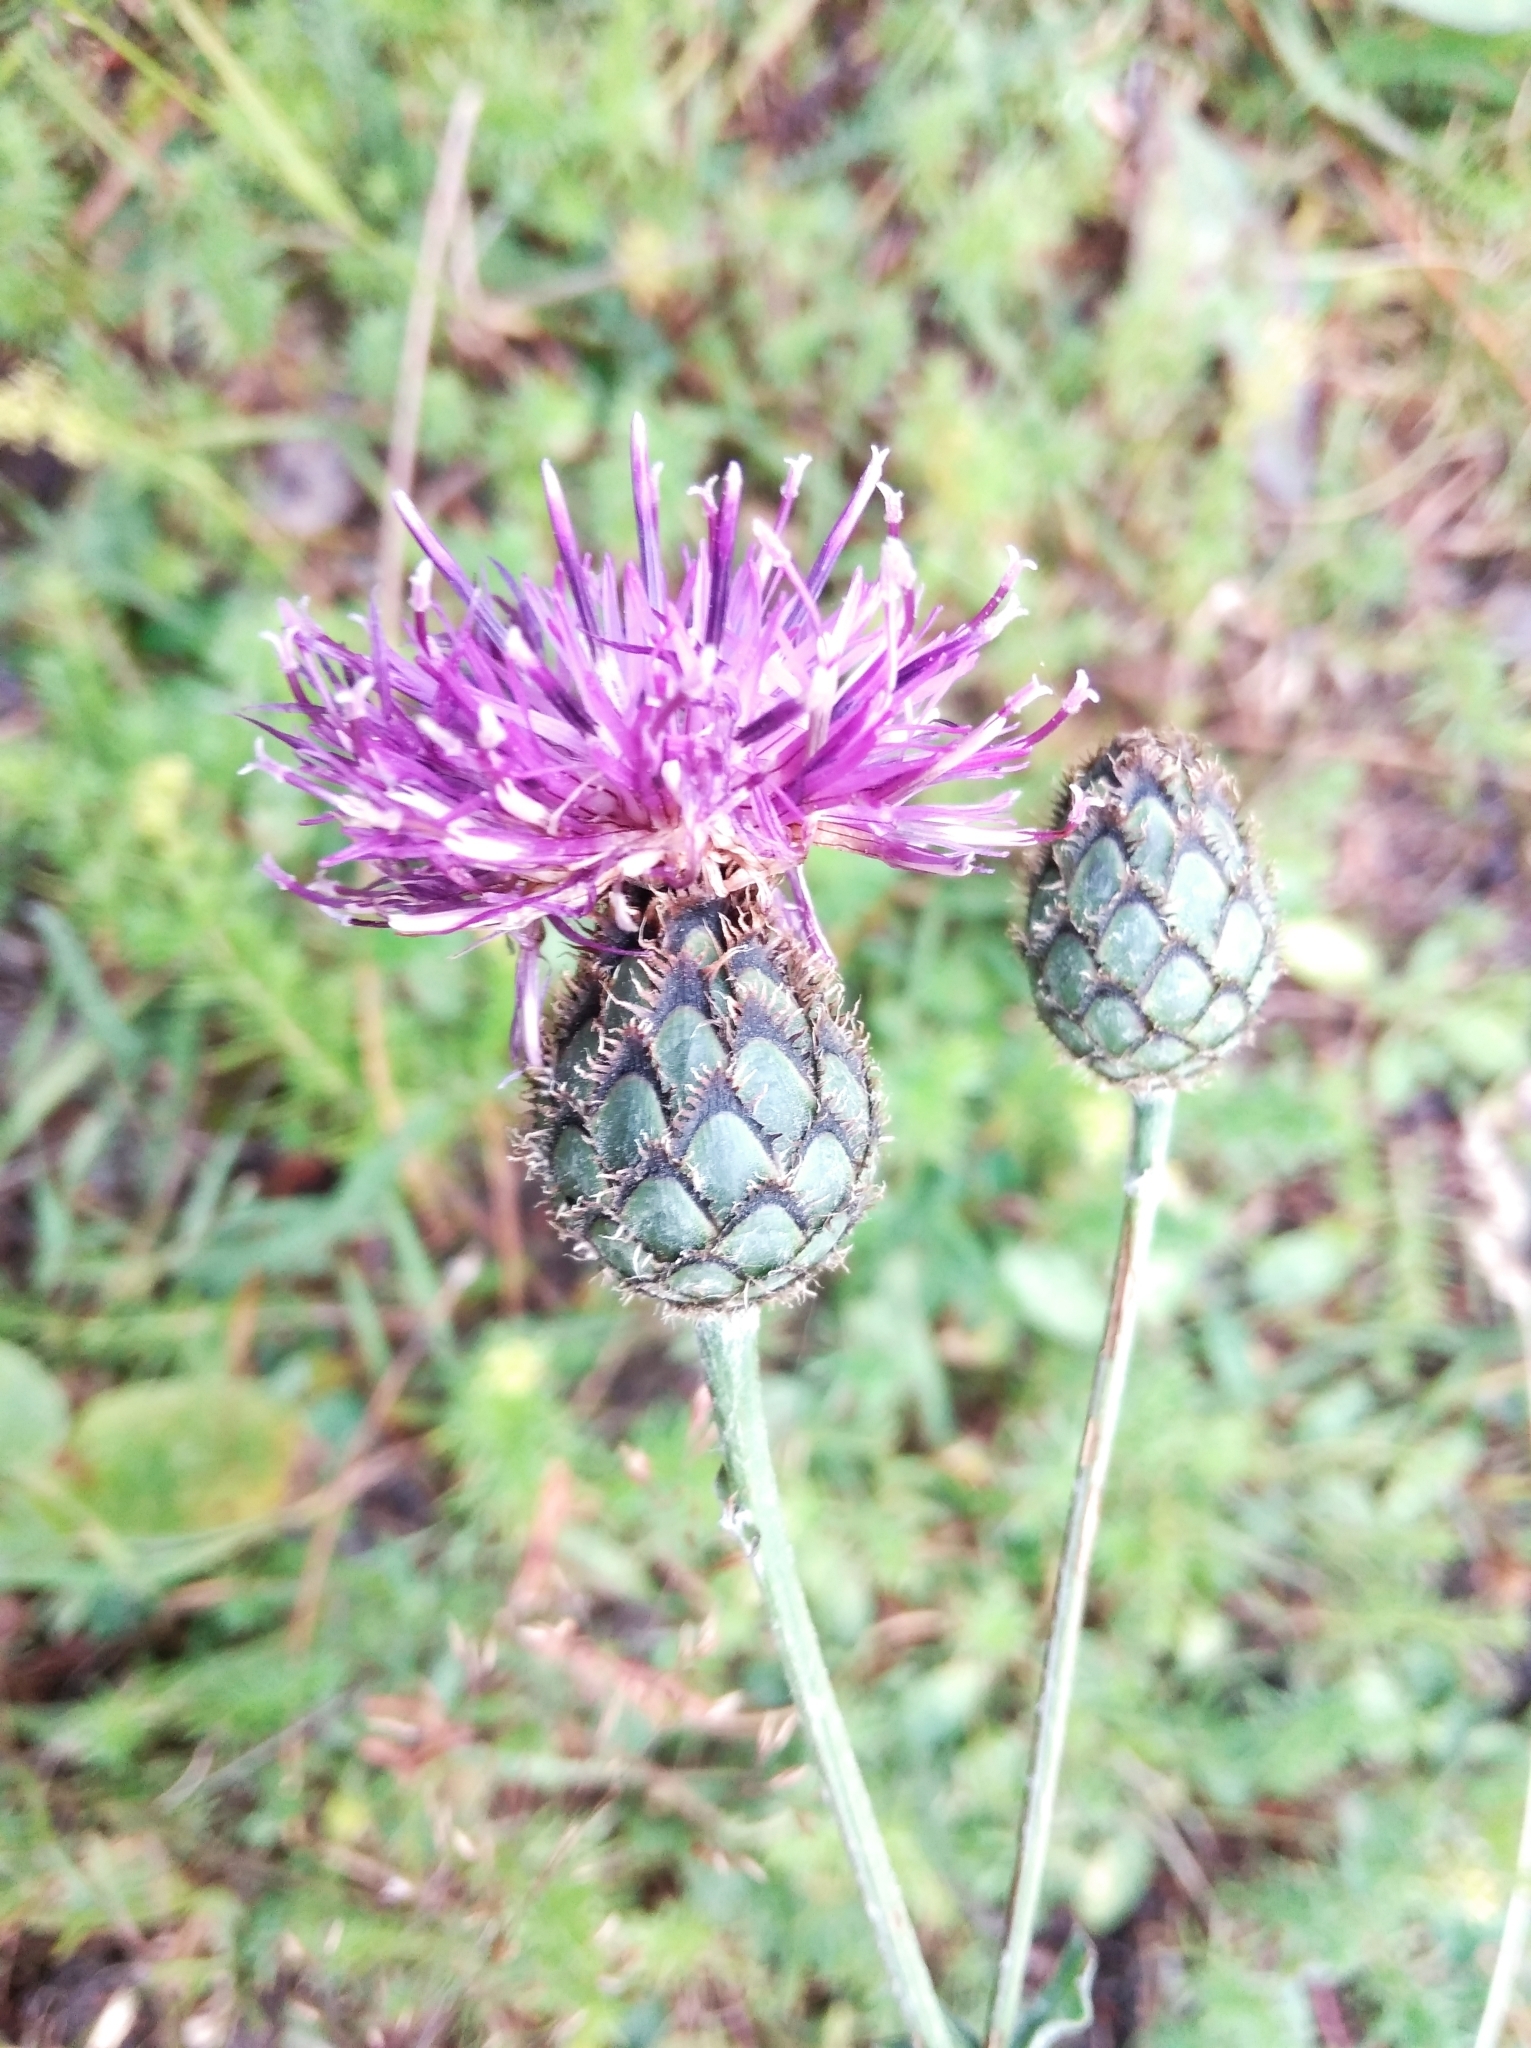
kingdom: Plantae
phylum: Tracheophyta
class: Magnoliopsida
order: Asterales
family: Asteraceae
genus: Centaurea
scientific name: Centaurea scabiosa
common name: Greater knapweed
